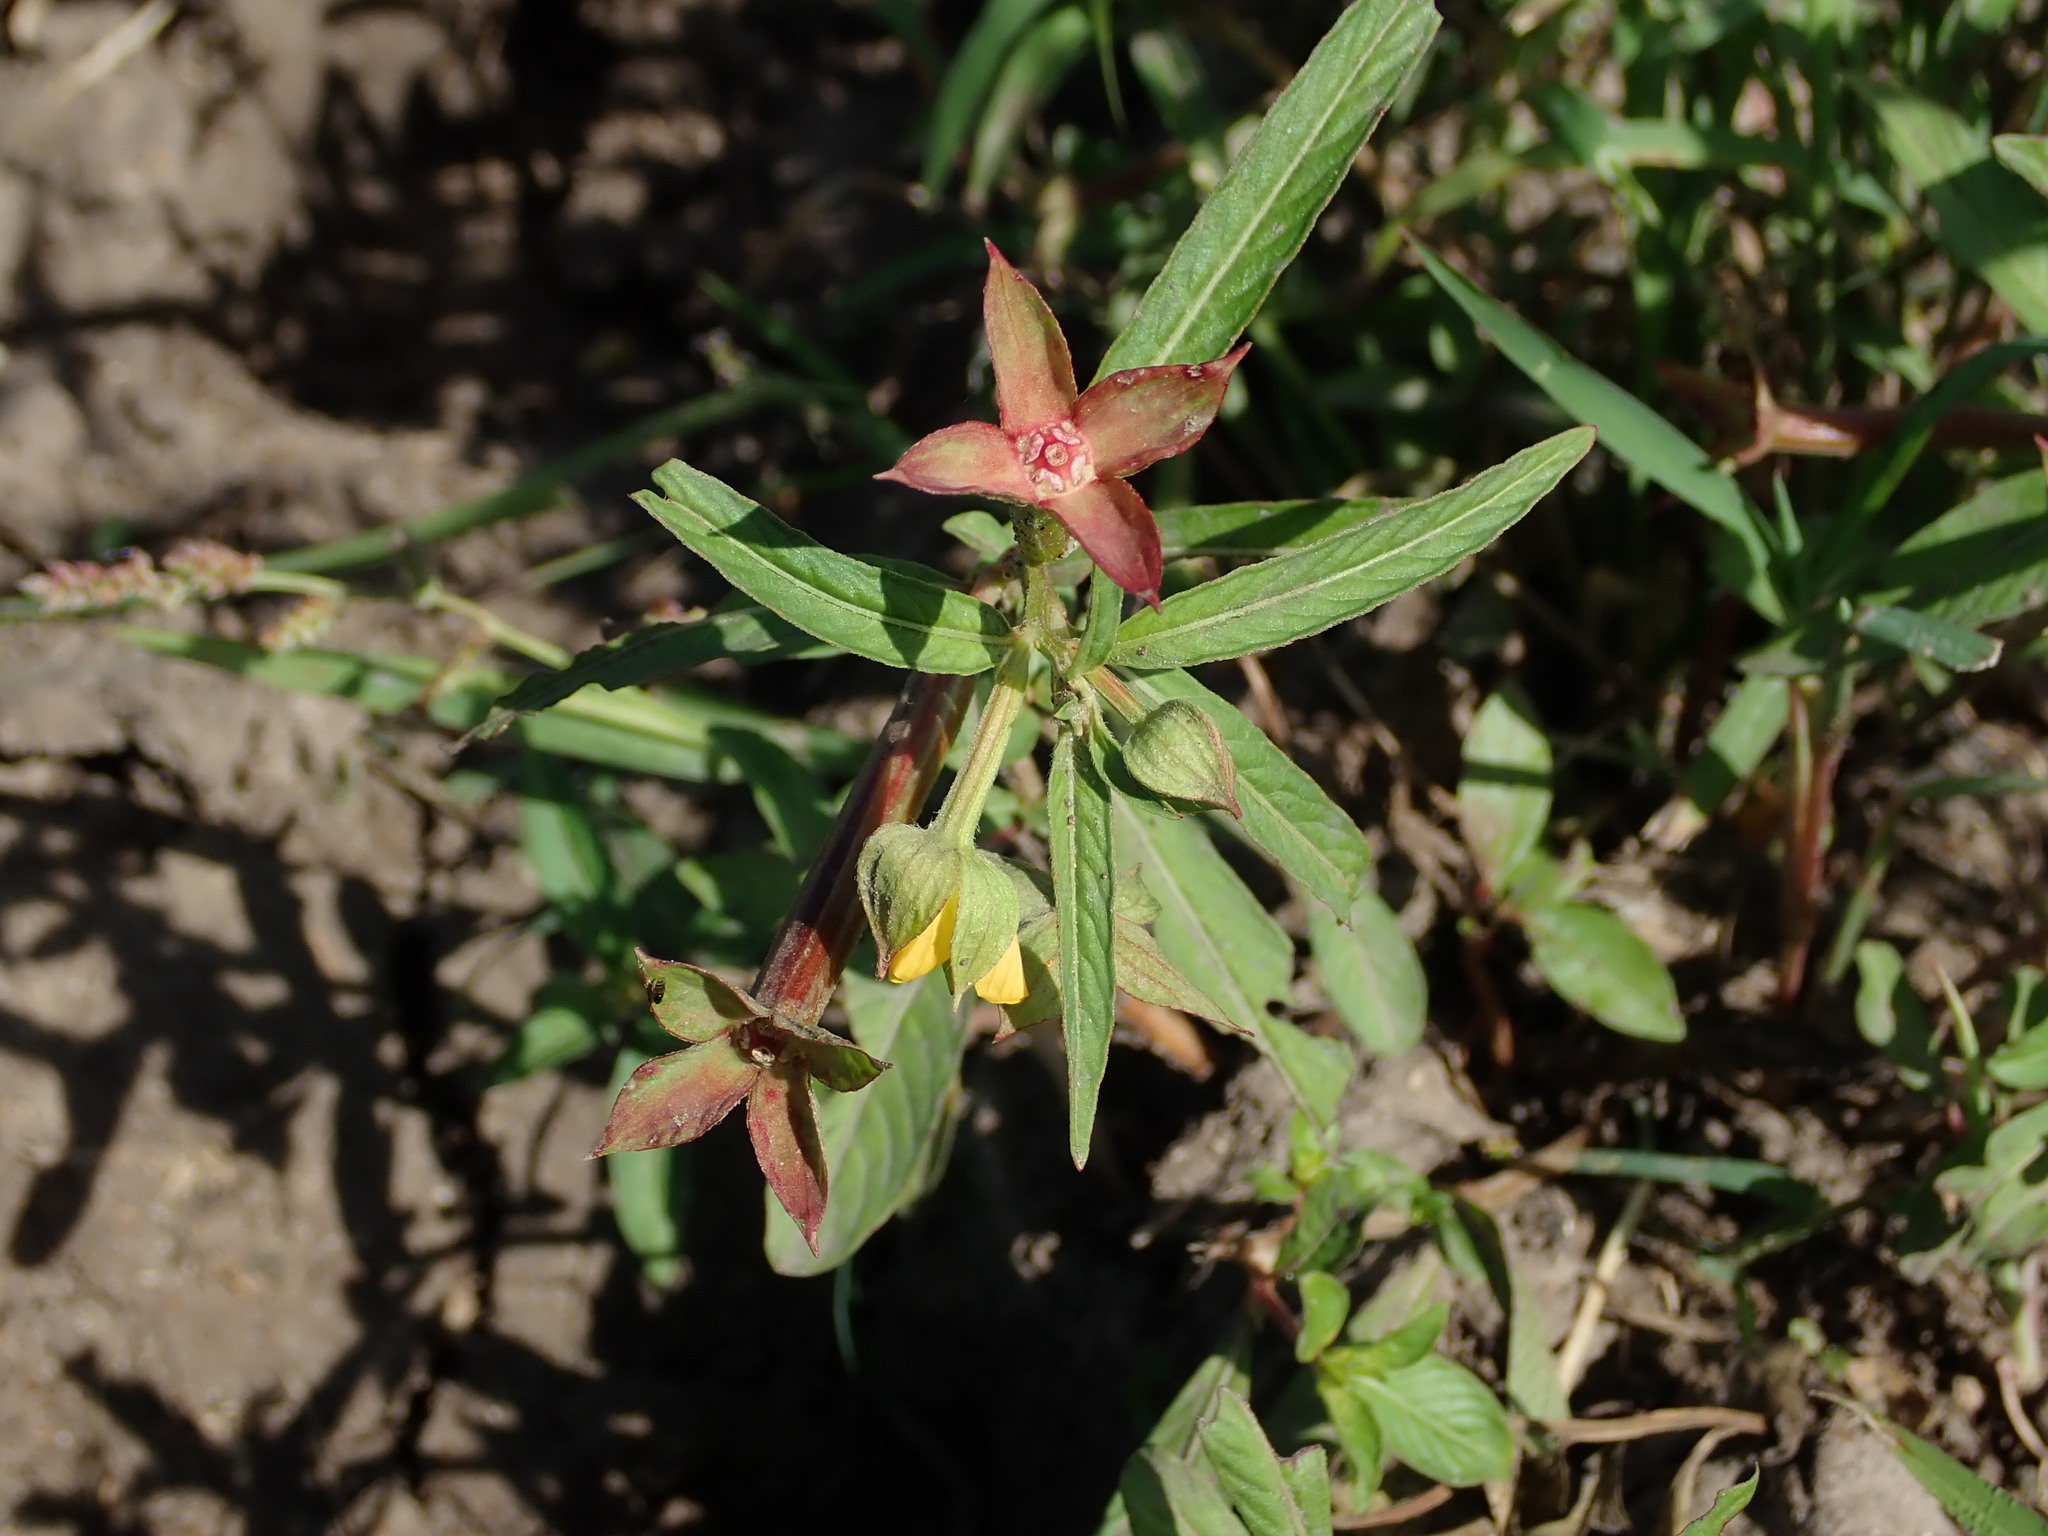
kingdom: Plantae
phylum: Tracheophyta
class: Magnoliopsida
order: Myrtales
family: Onagraceae
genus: Ludwigia
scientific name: Ludwigia octovalvis
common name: Water-primrose
